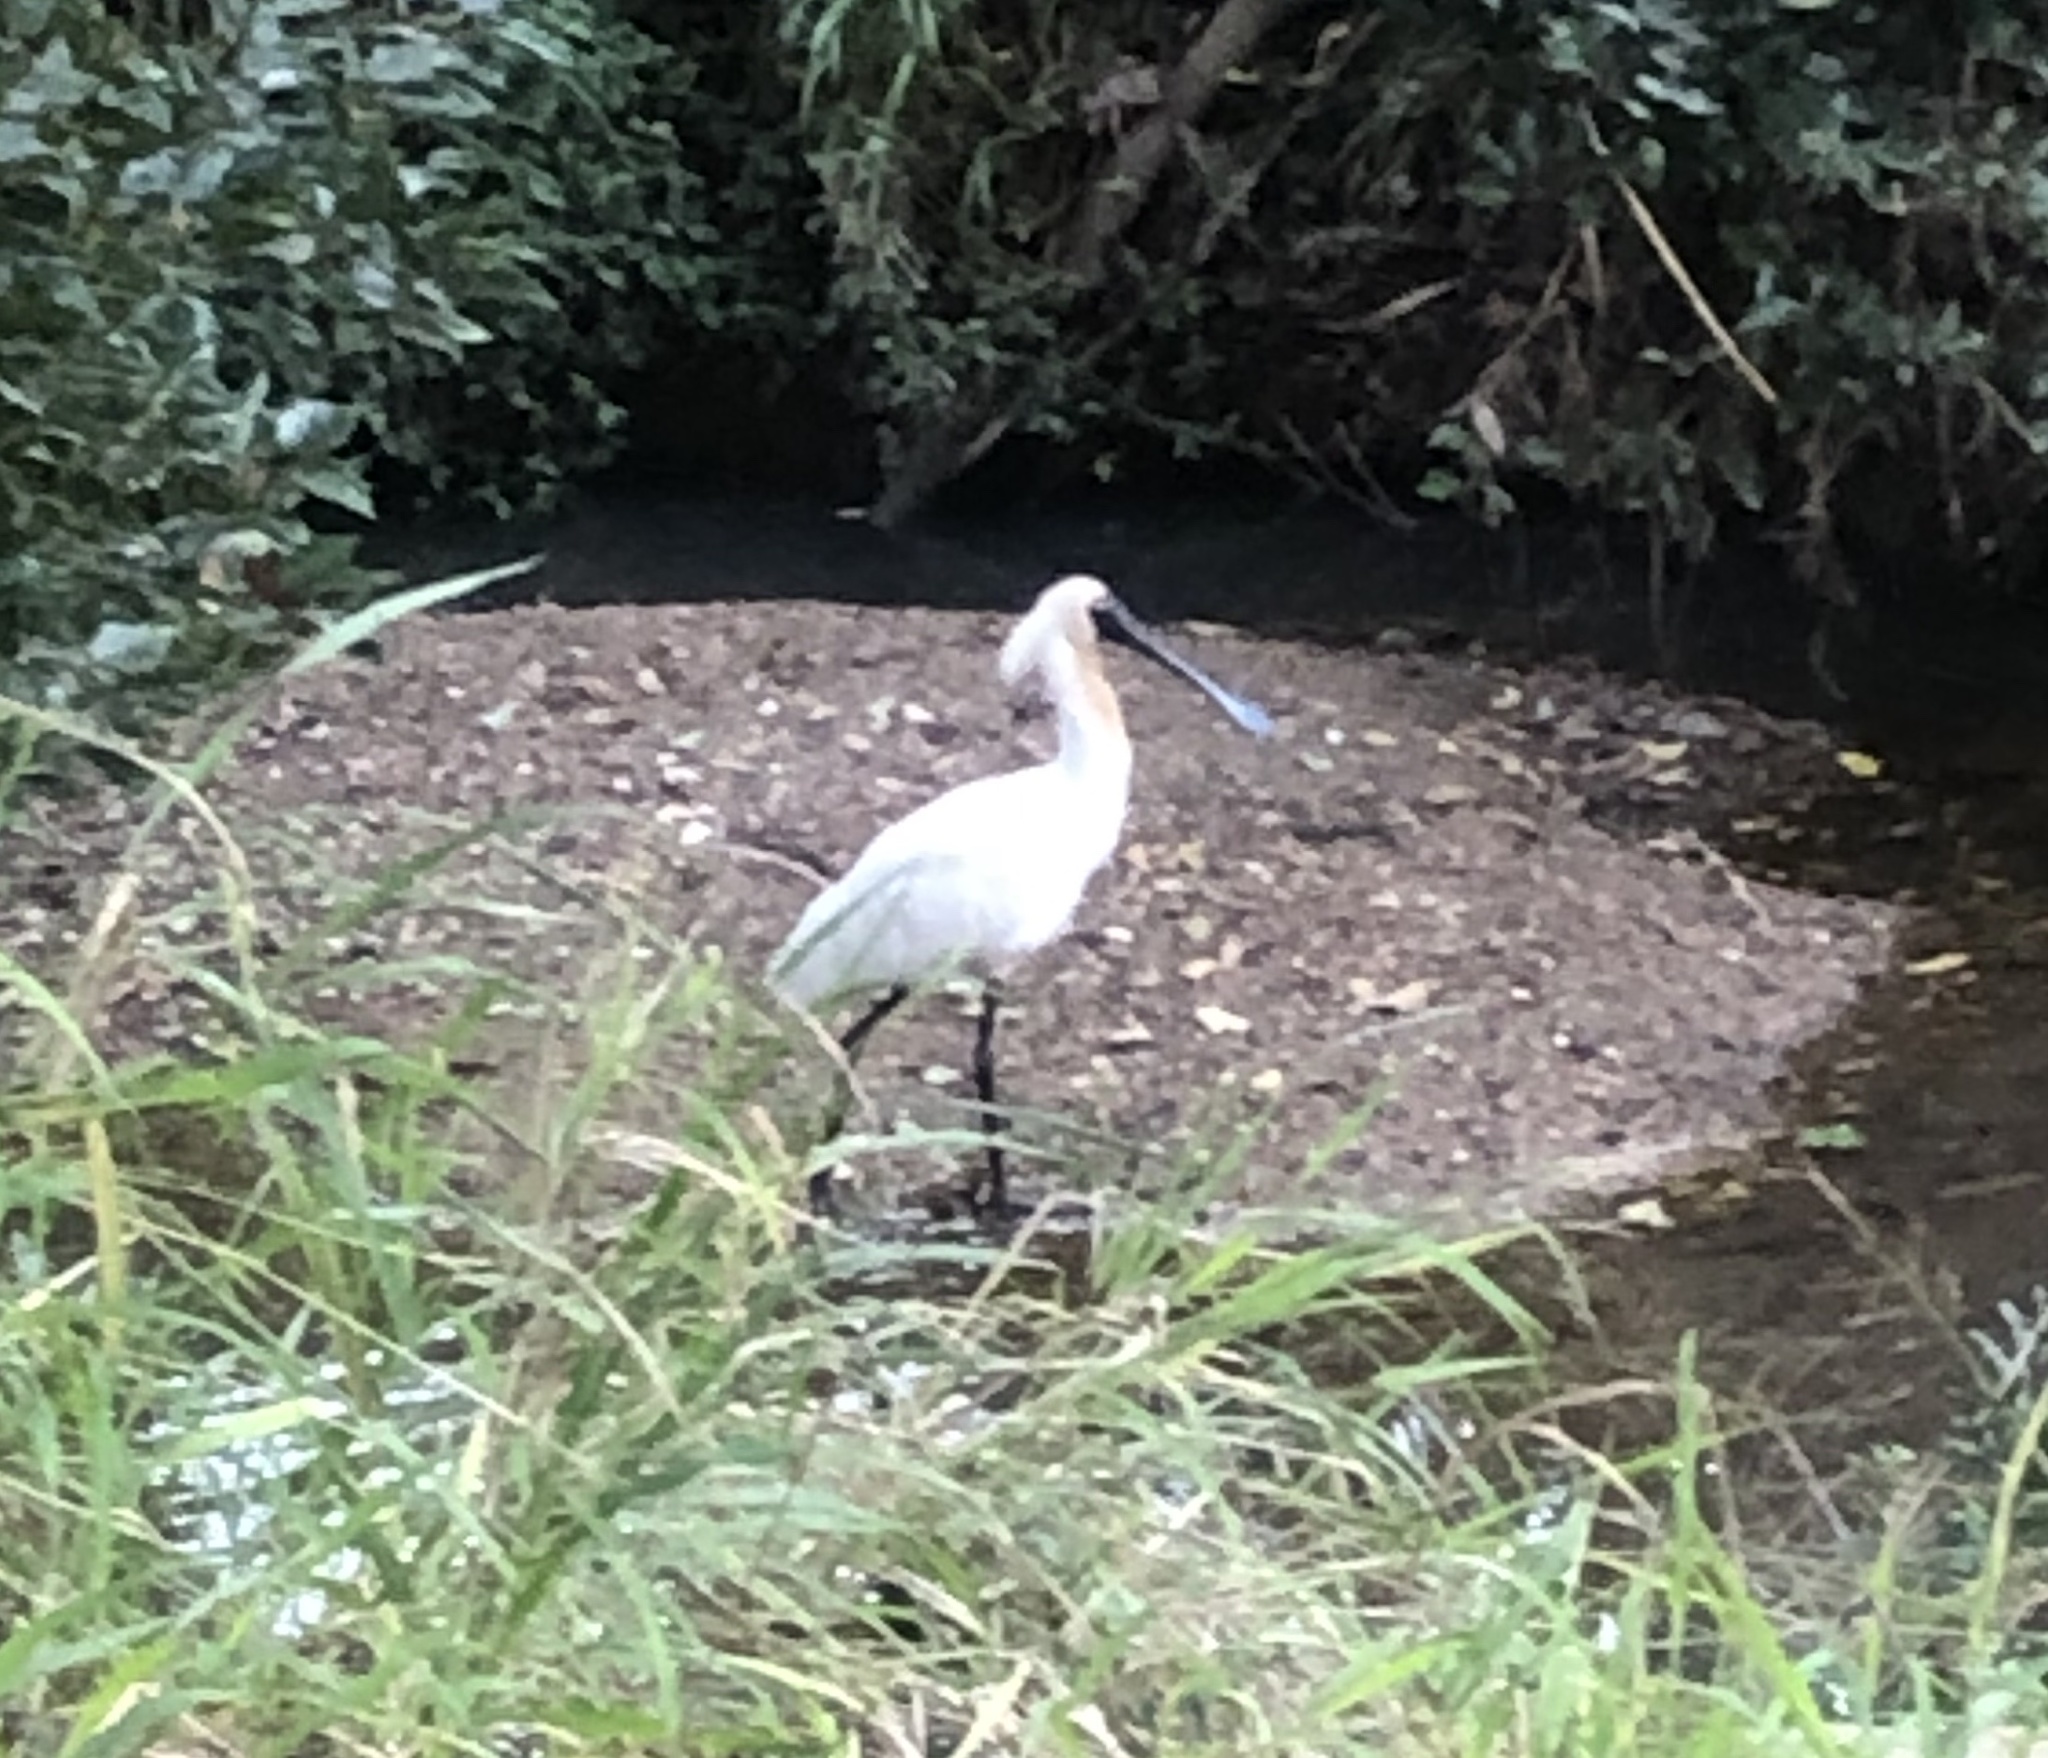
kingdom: Animalia
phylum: Chordata
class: Aves
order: Pelecaniformes
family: Threskiornithidae
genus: Platalea
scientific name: Platalea regia
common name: Royal spoonbill
